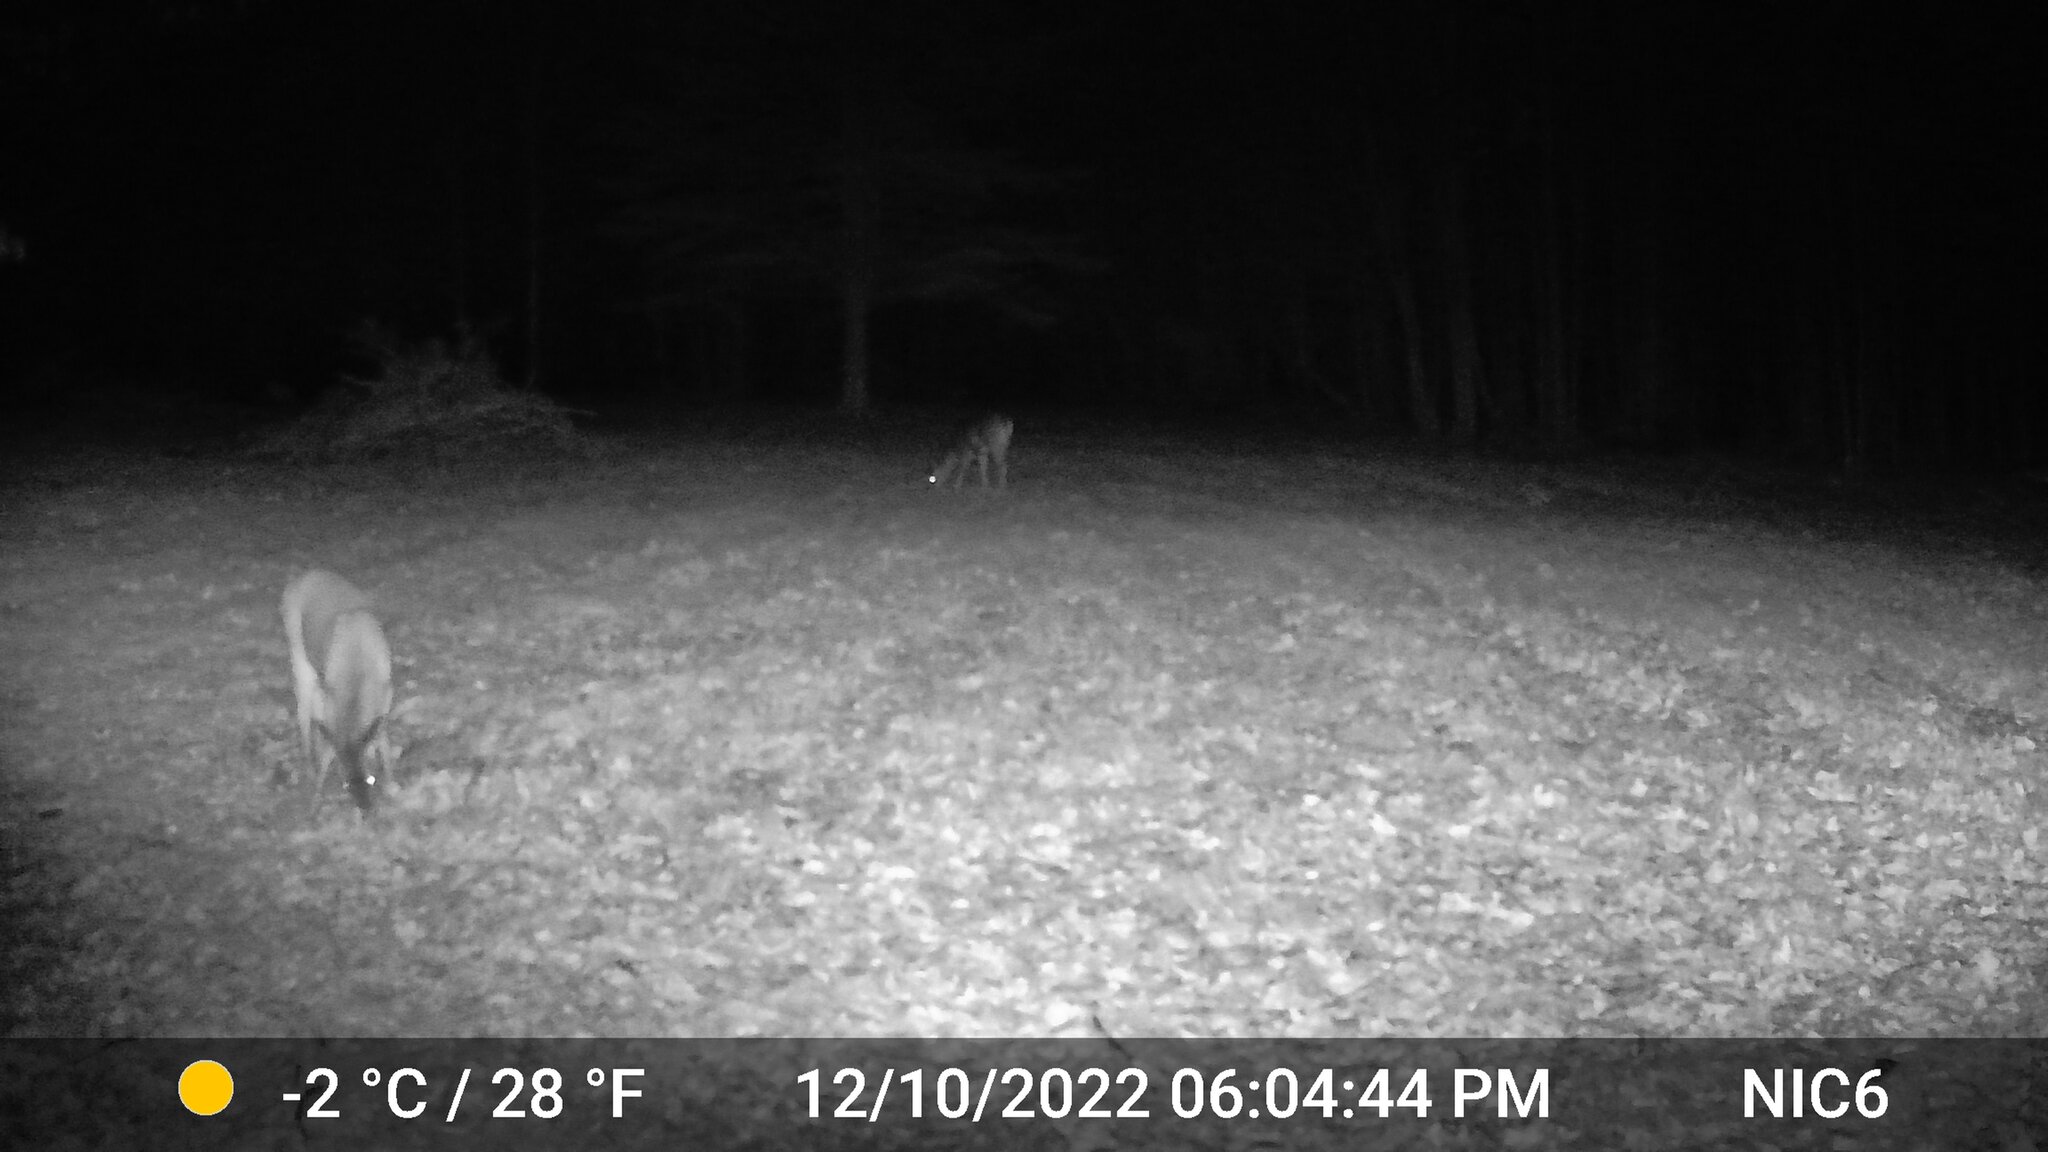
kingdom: Animalia
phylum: Chordata
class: Mammalia
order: Artiodactyla
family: Cervidae
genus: Odocoileus
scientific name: Odocoileus virginianus
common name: White-tailed deer
